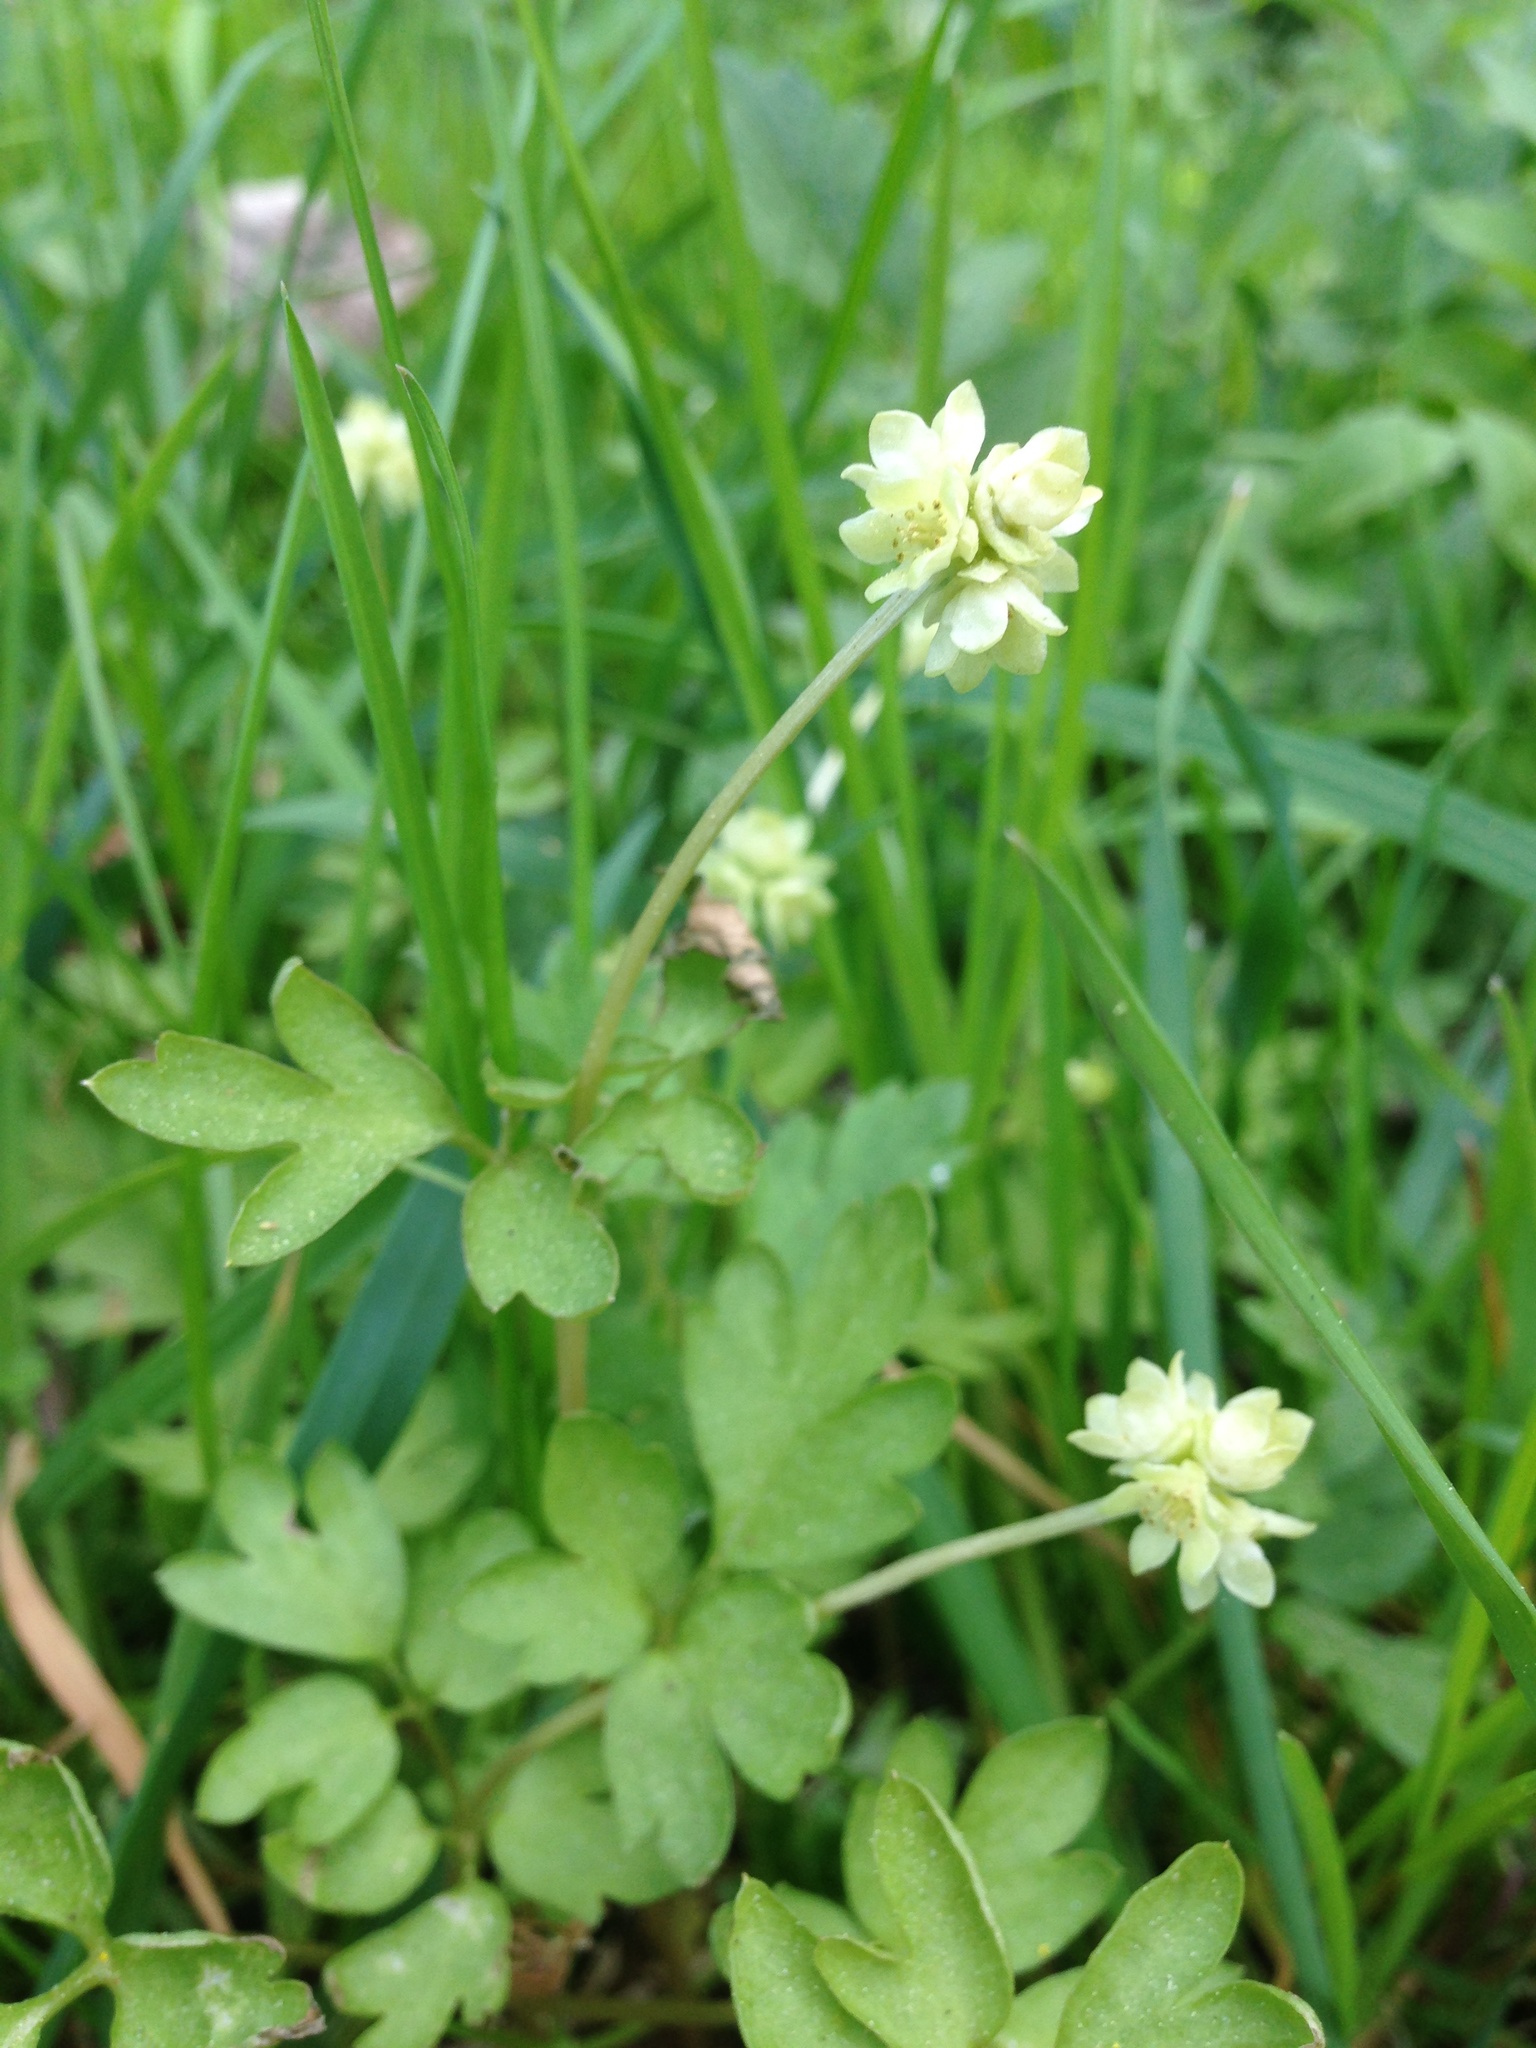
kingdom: Plantae
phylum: Tracheophyta
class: Magnoliopsida
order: Dipsacales
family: Viburnaceae
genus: Adoxa
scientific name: Adoxa moschatellina
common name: Moschatel
